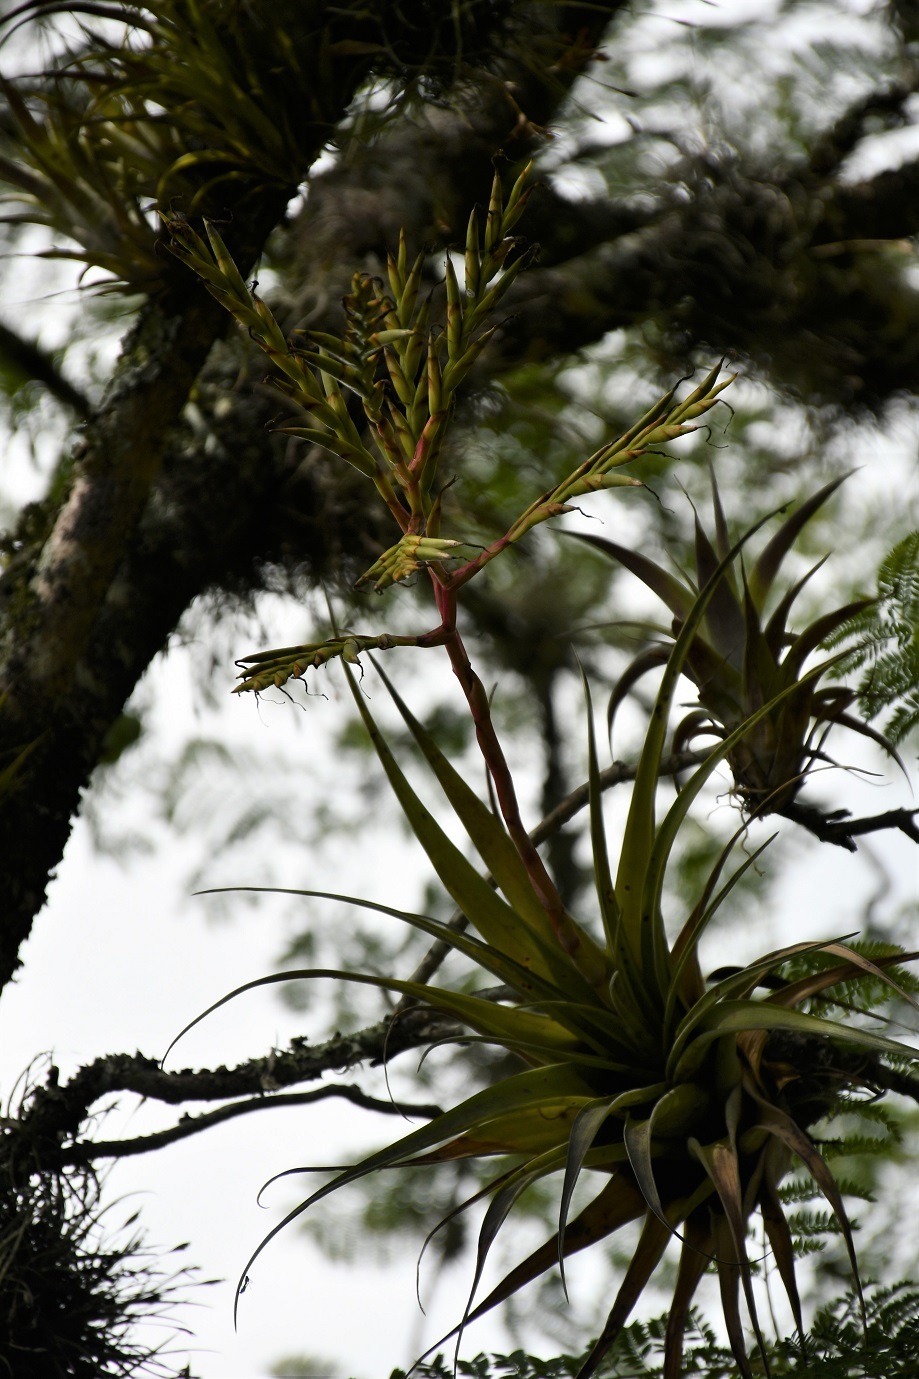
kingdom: Plantae
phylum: Tracheophyta
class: Liliopsida
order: Poales
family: Bromeliaceae
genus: Tillandsia
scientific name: Tillandsia makoyana
